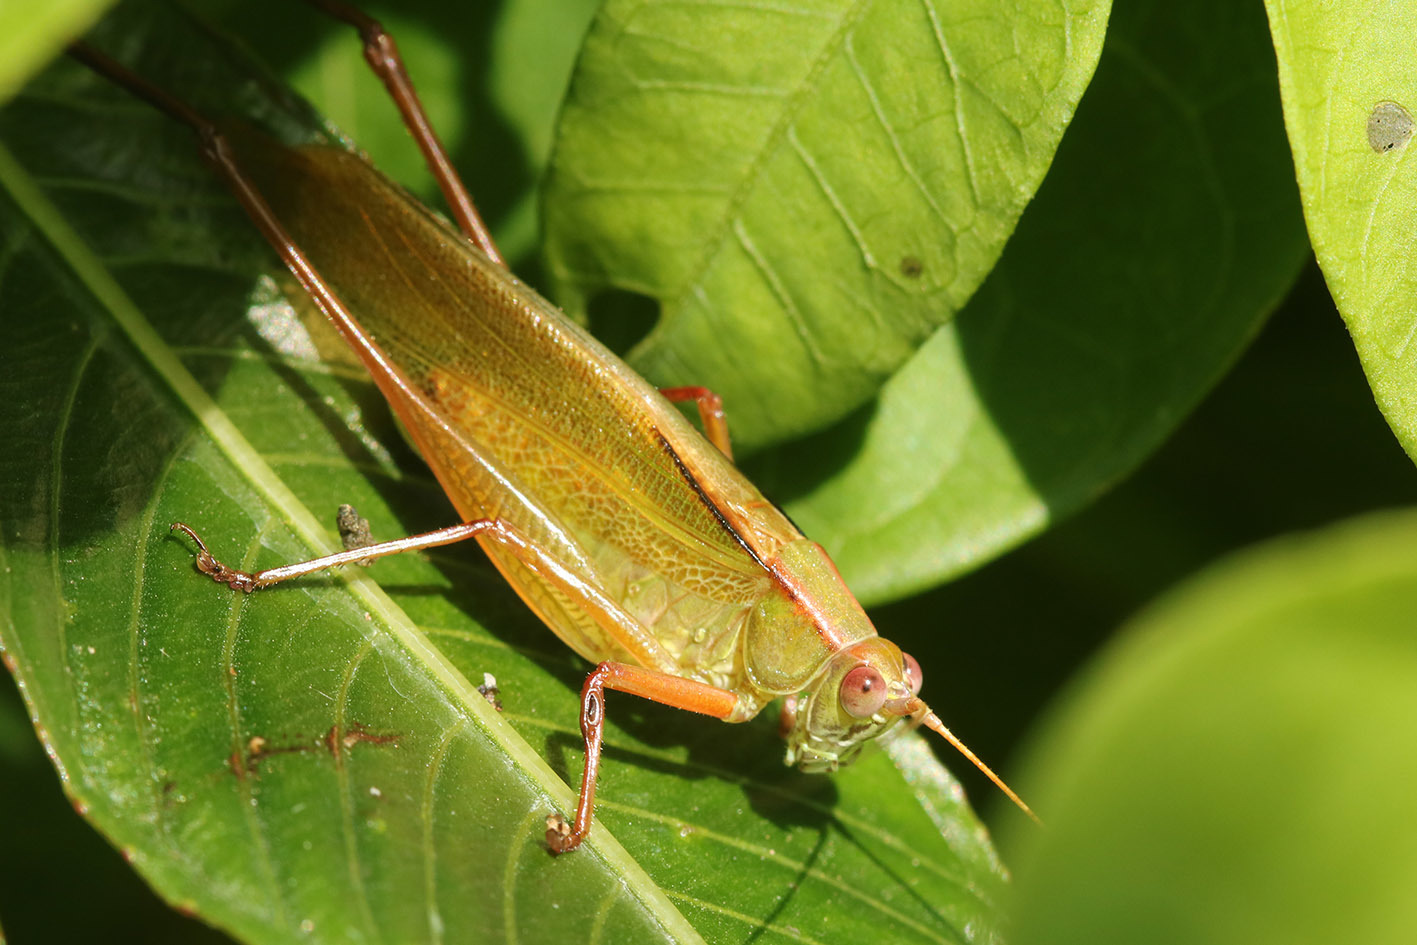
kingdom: Animalia
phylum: Arthropoda
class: Insecta
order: Orthoptera
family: Tettigoniidae
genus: Theudoria
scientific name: Theudoria melanocnemis
